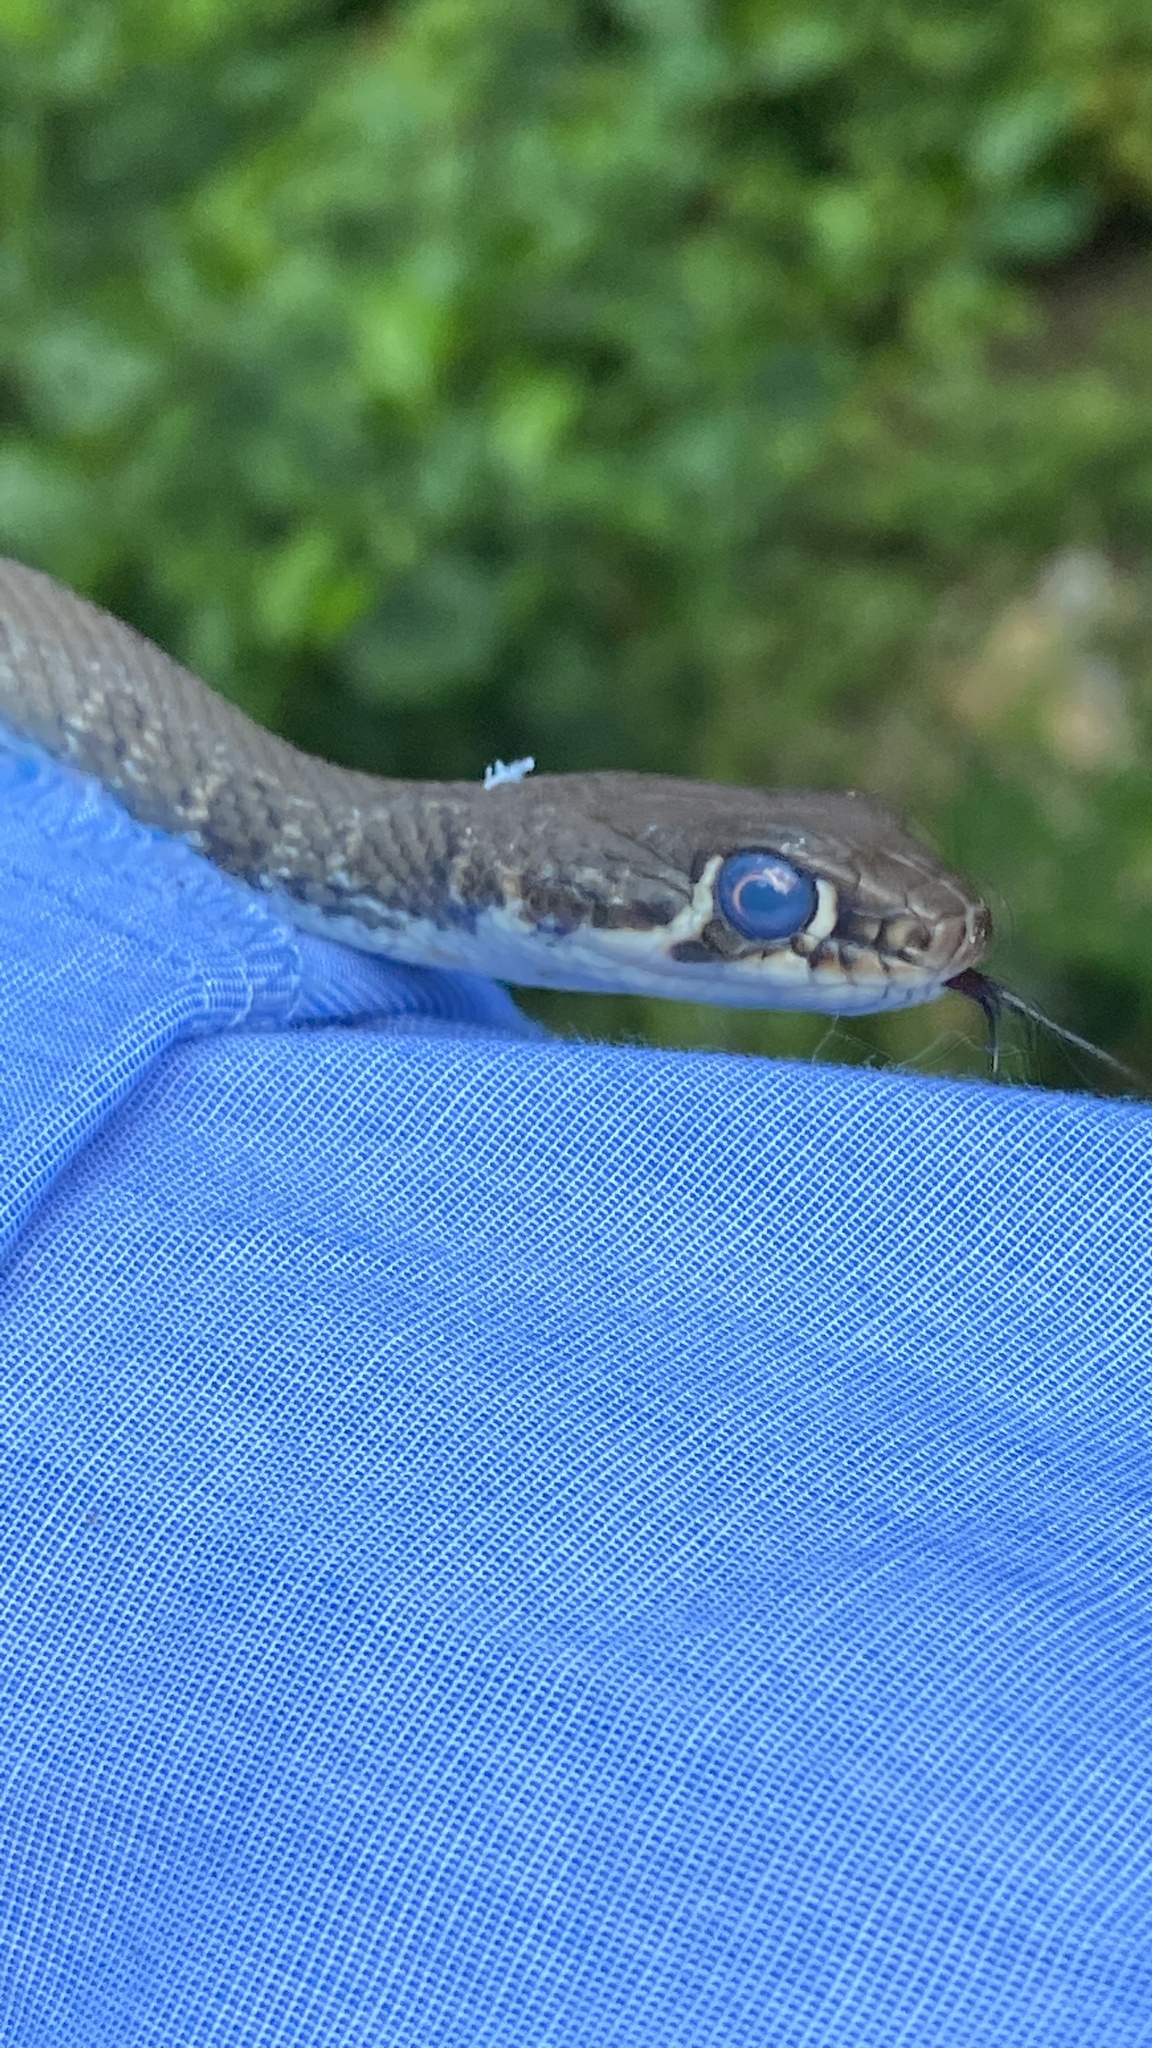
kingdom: Animalia
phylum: Chordata
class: Squamata
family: Colubridae
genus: Platyceps
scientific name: Platyceps najadum
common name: Dahl's whip snake
